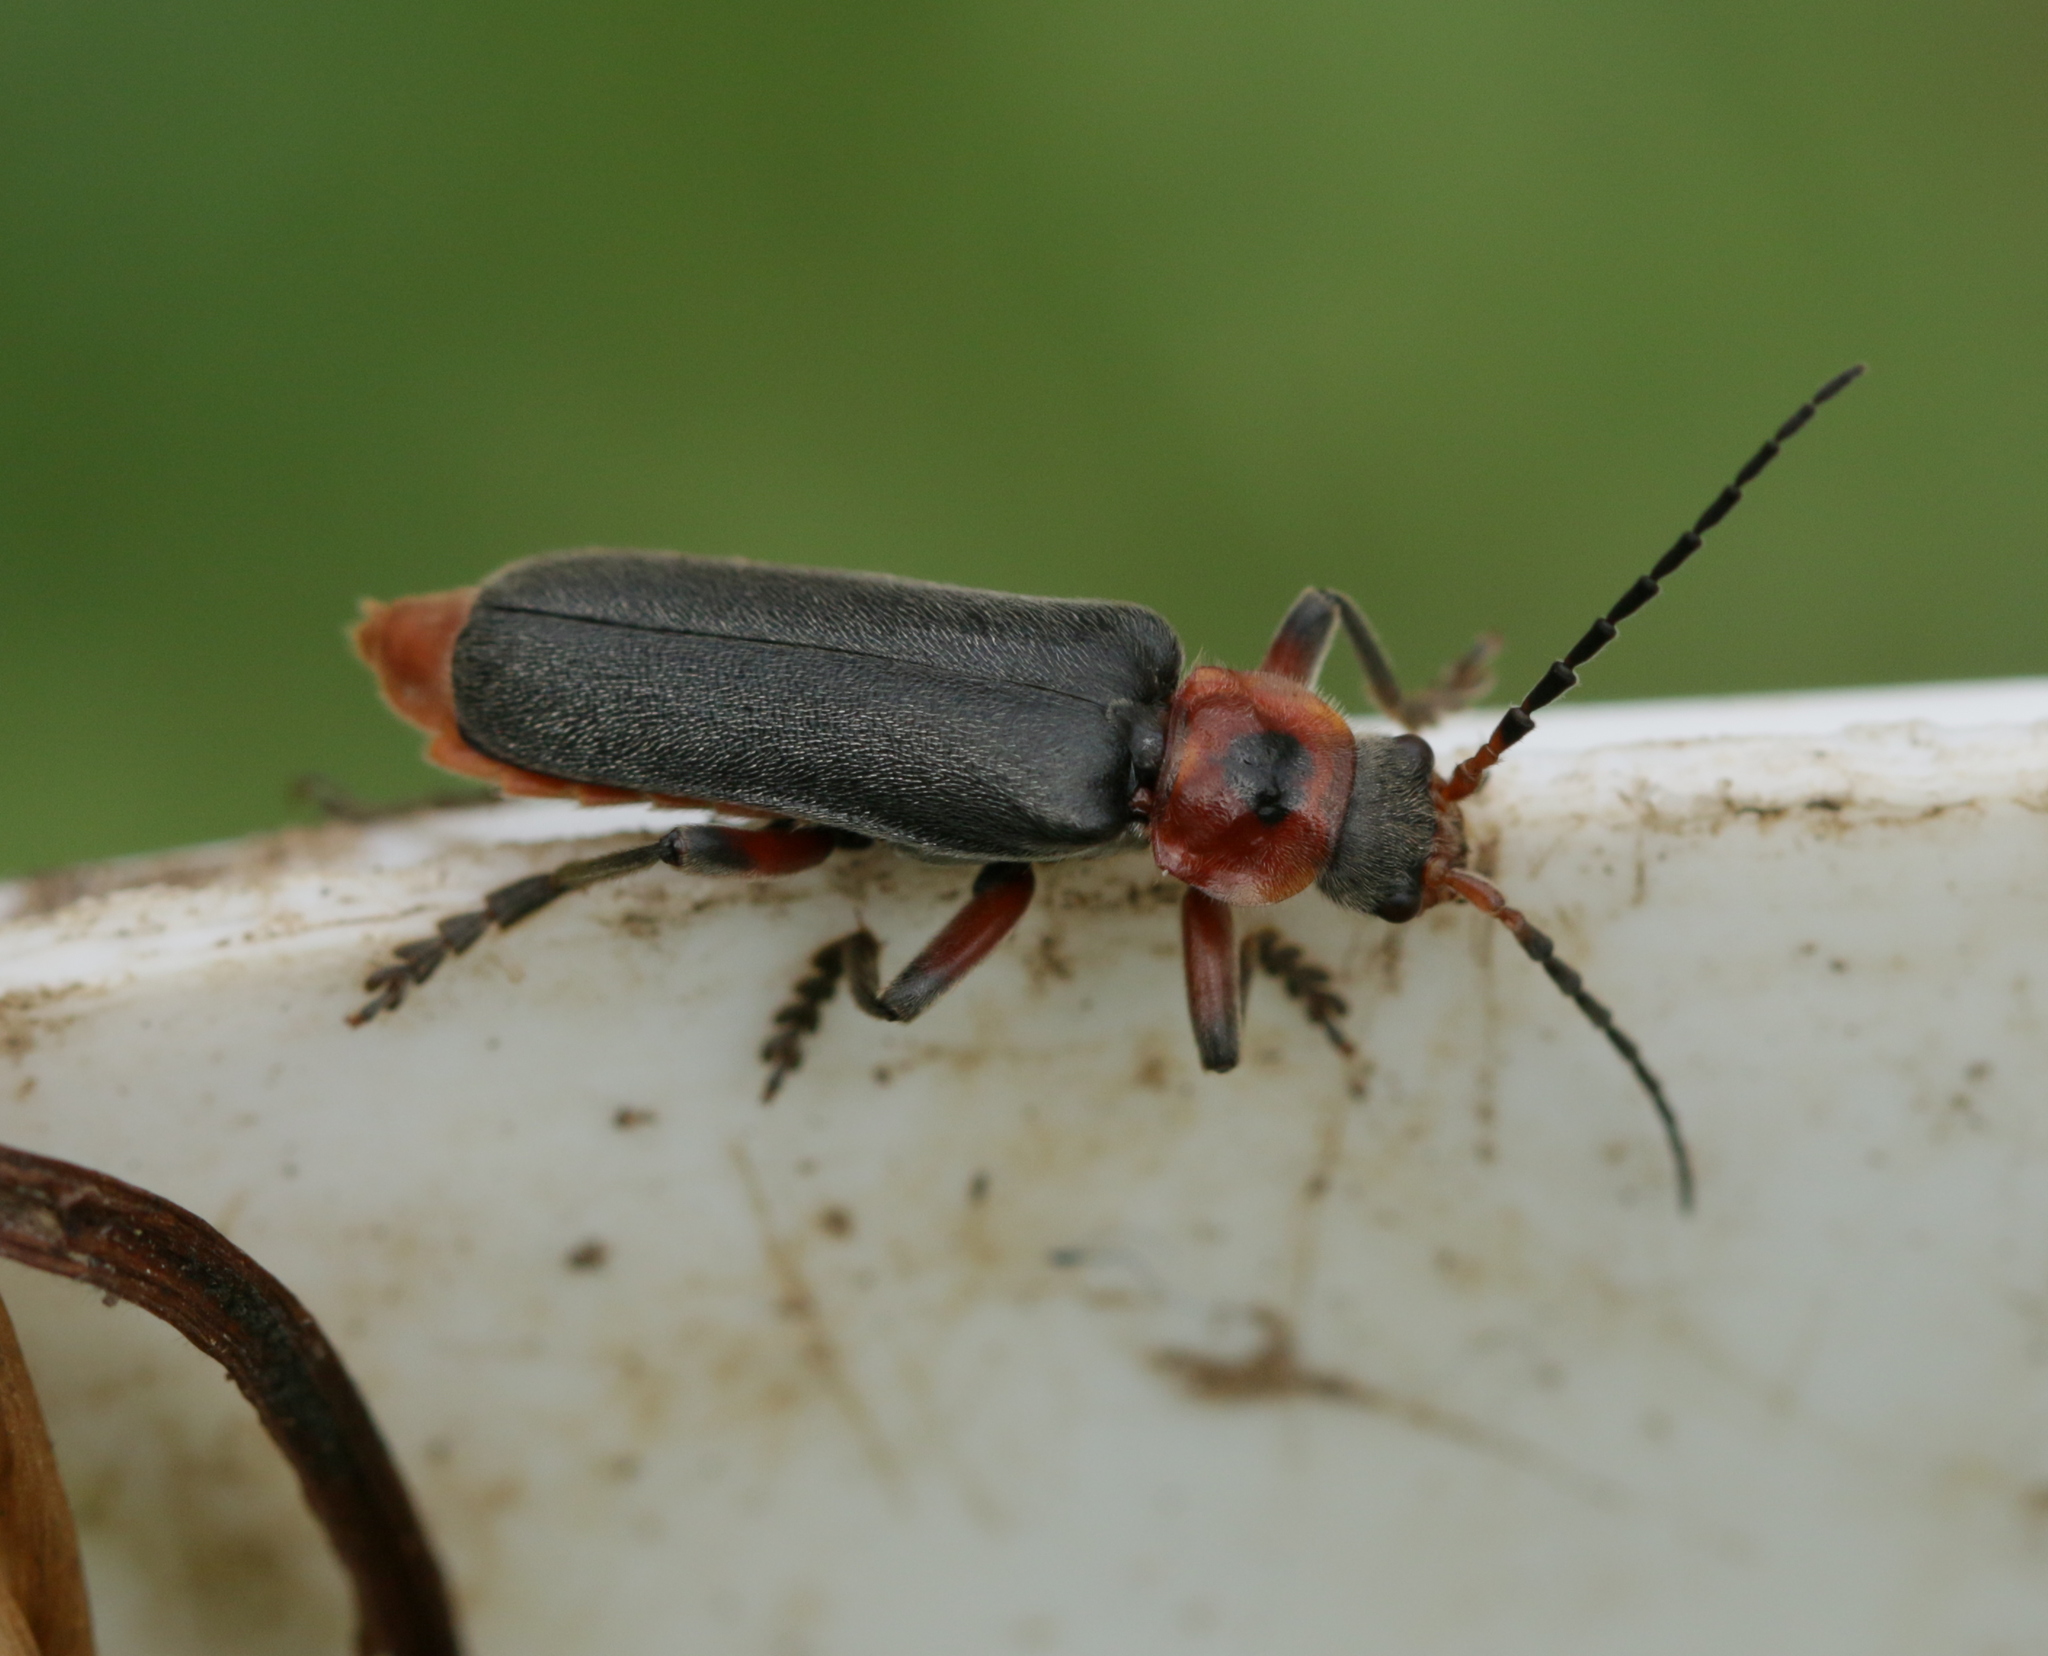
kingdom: Animalia
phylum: Arthropoda
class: Insecta
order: Coleoptera
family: Cantharidae
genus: Cantharis
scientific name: Cantharis rustica
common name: Soldier beetle
